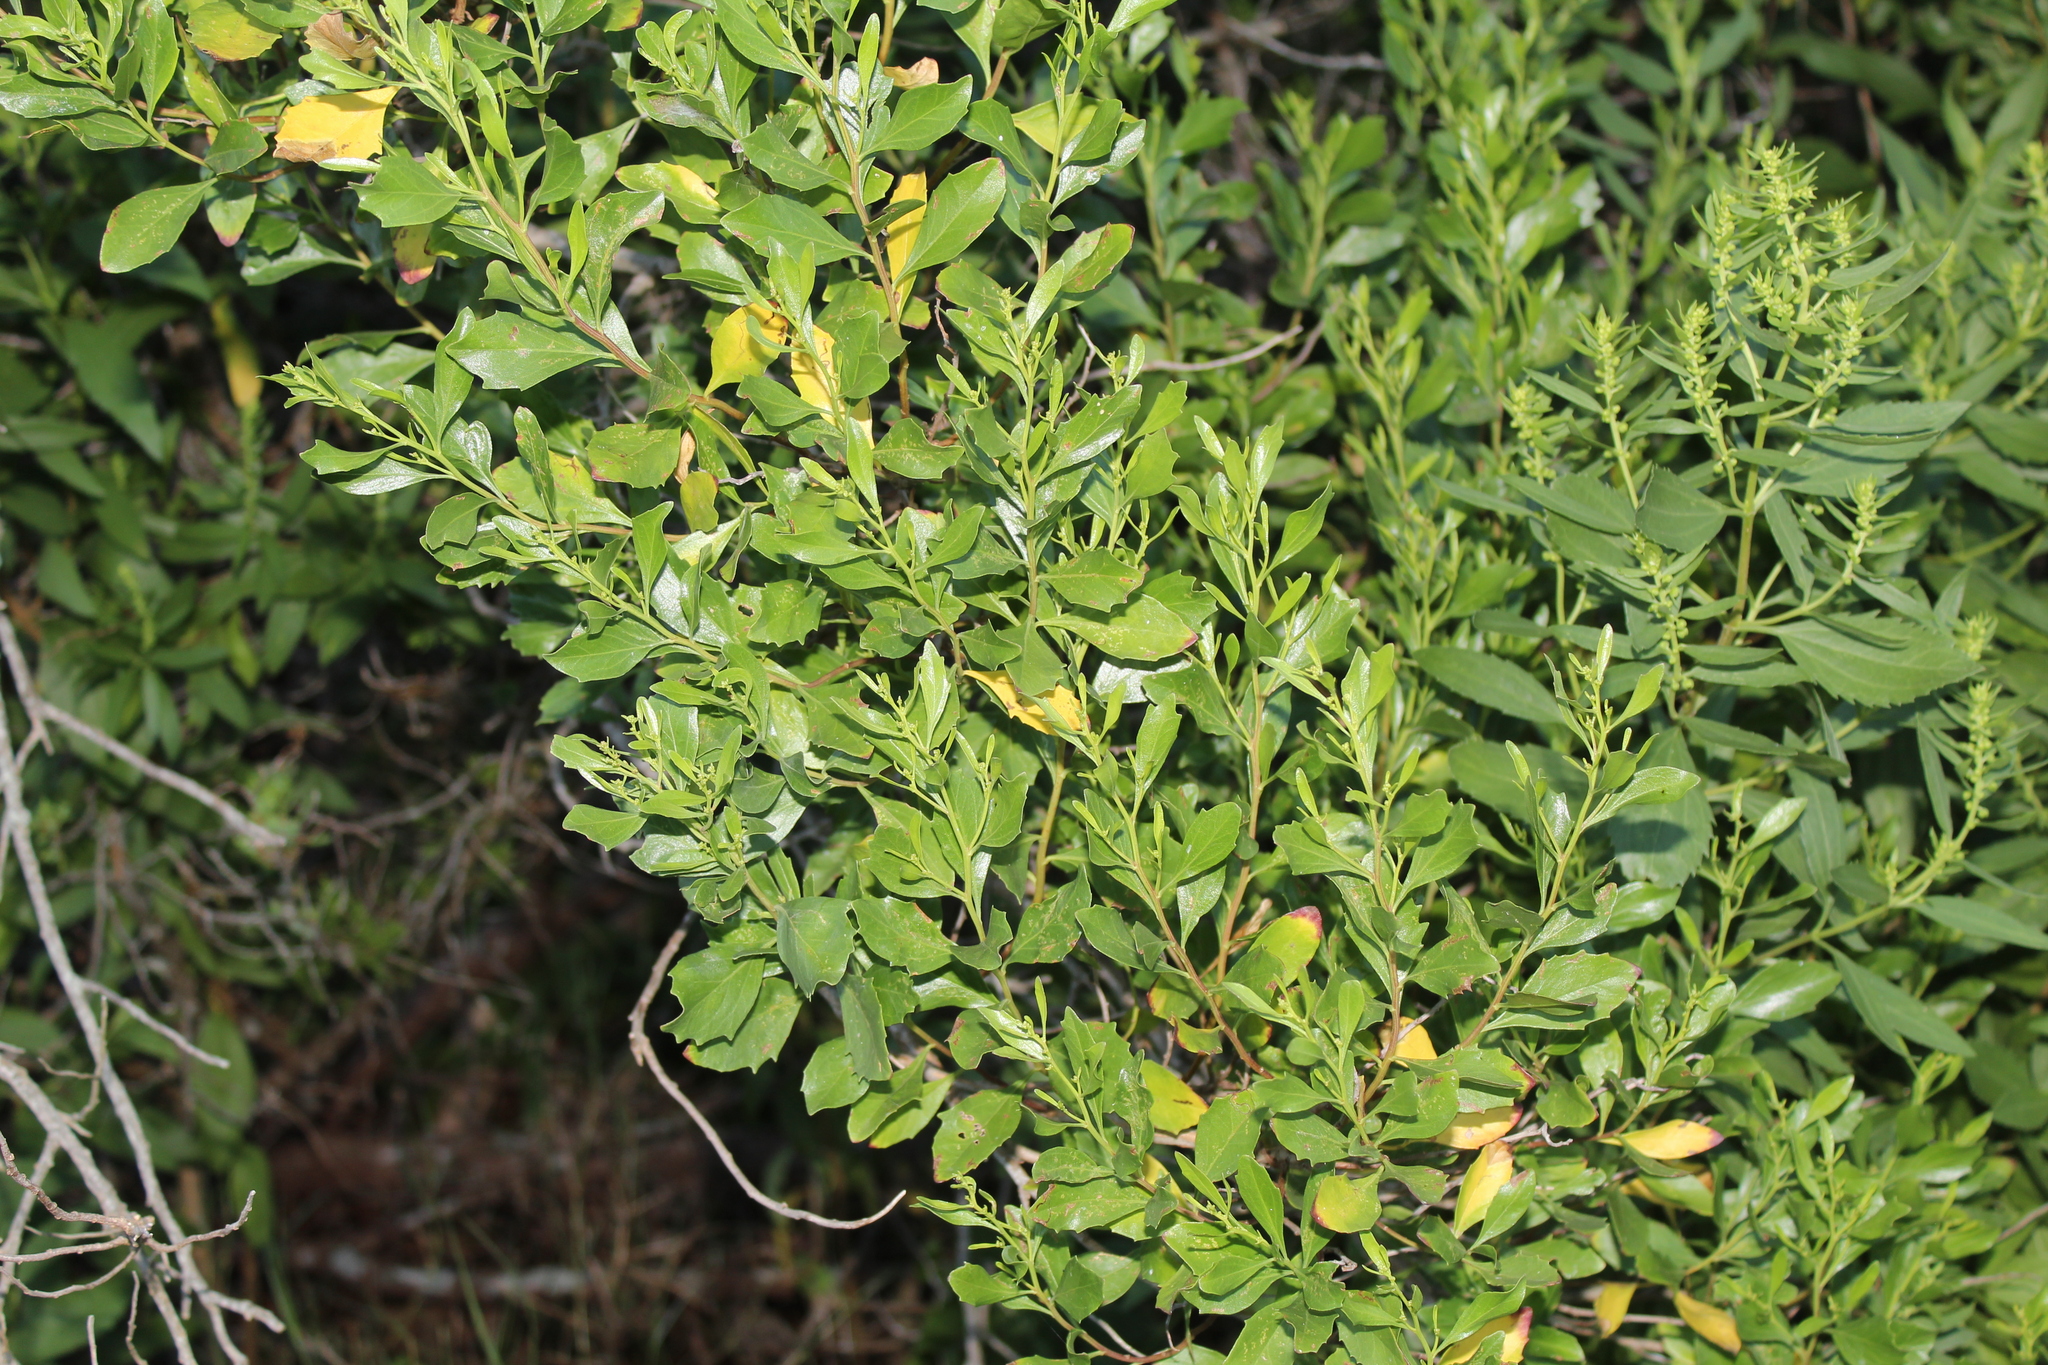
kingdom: Plantae
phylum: Tracheophyta
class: Magnoliopsida
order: Asterales
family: Asteraceae
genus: Baccharis
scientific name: Baccharis halimifolia
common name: Eastern baccharis
